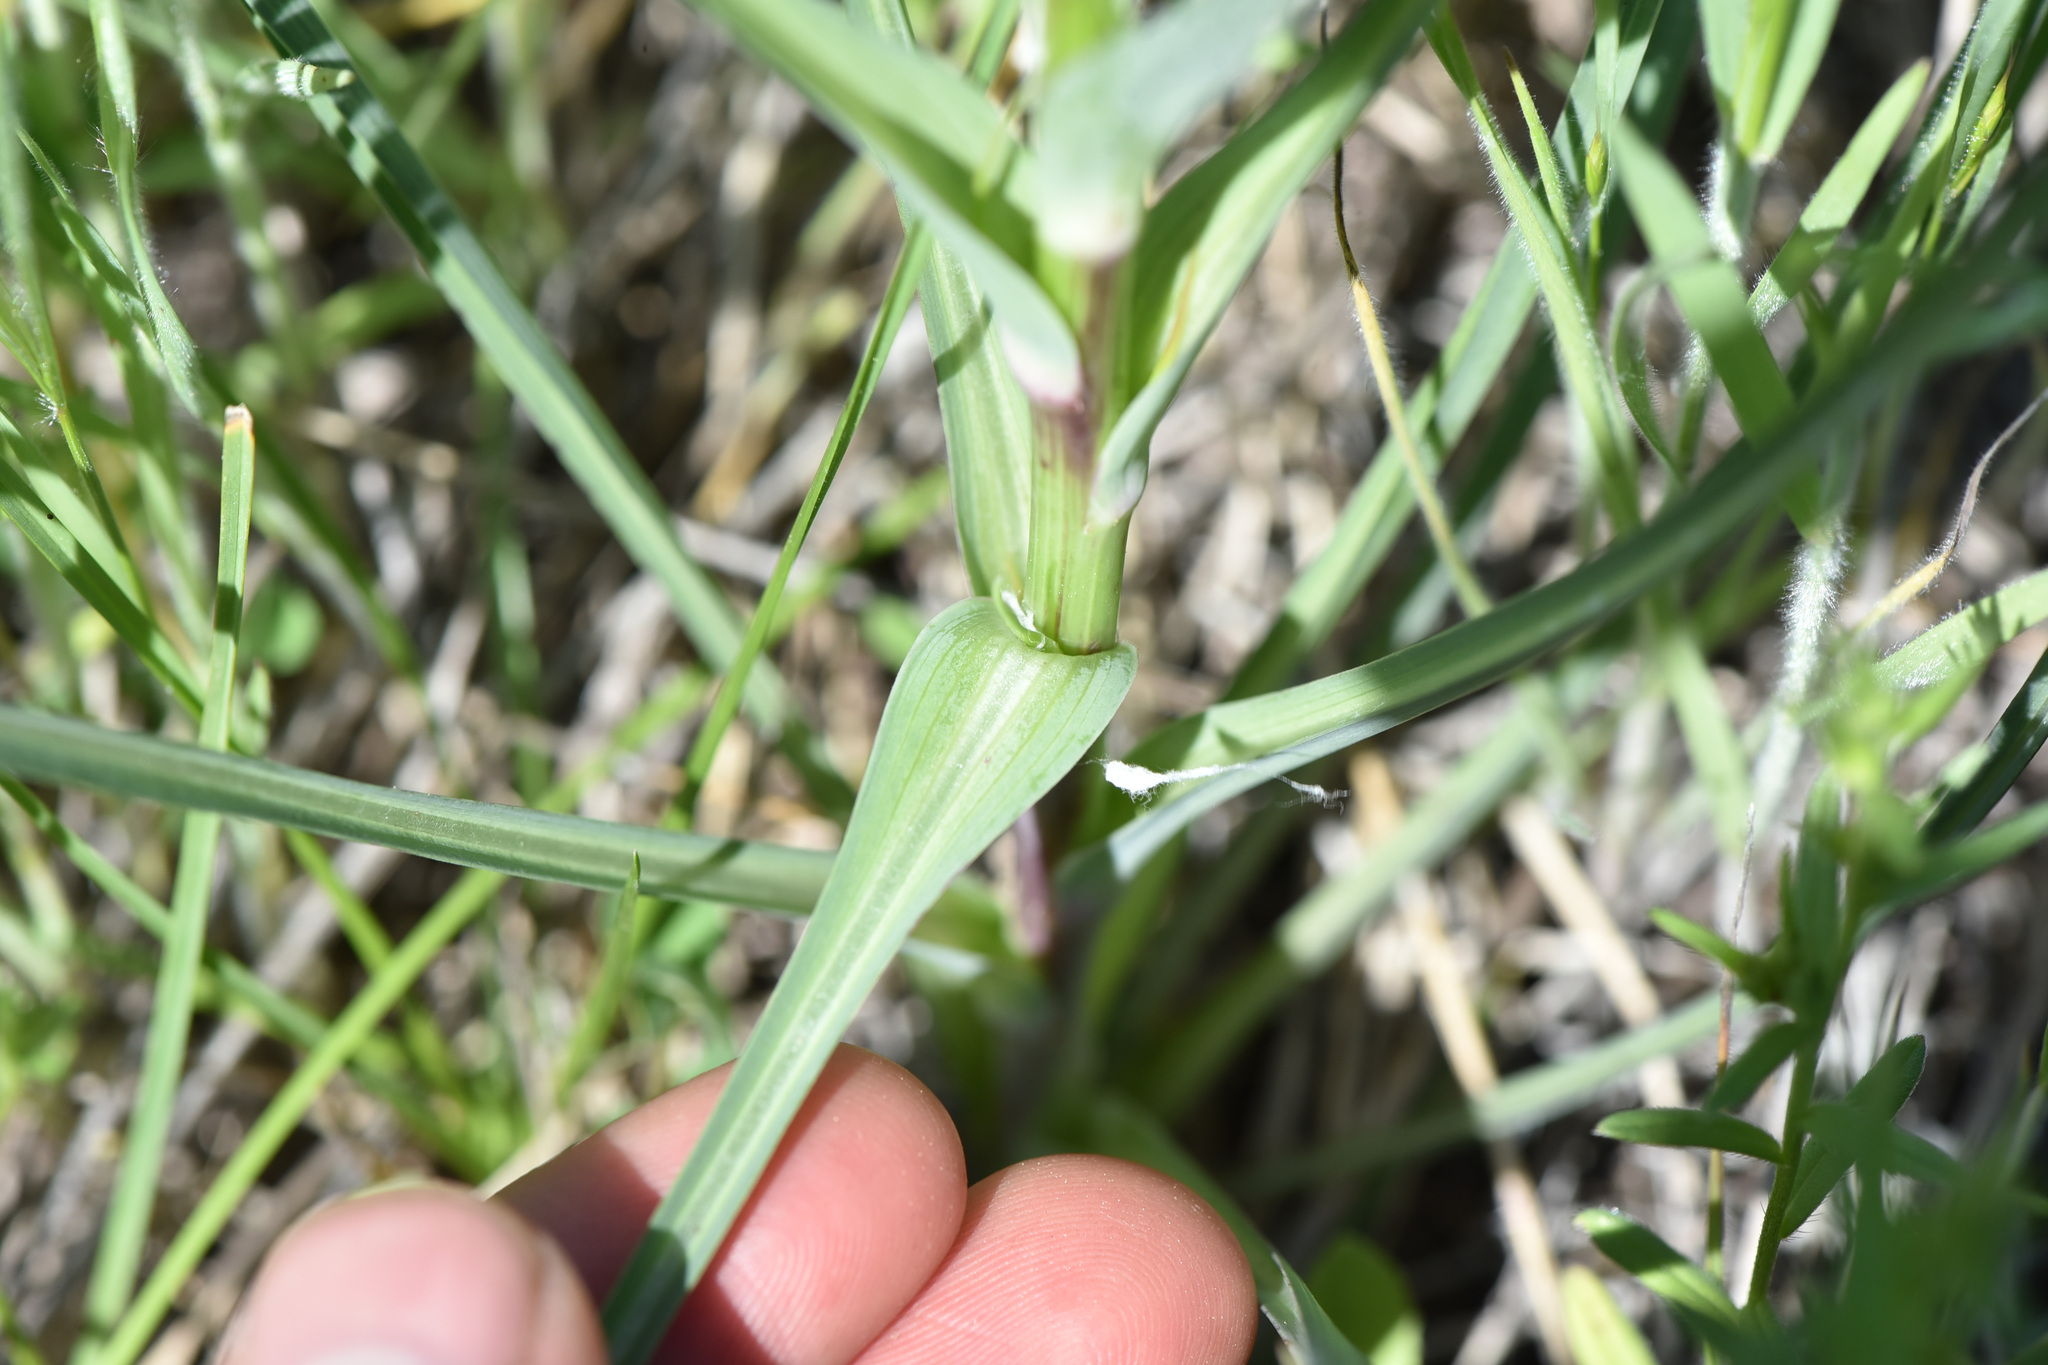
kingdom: Plantae
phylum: Tracheophyta
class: Magnoliopsida
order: Asterales
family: Asteraceae
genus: Tragopogon
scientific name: Tragopogon dubius
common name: Yellow salsify
